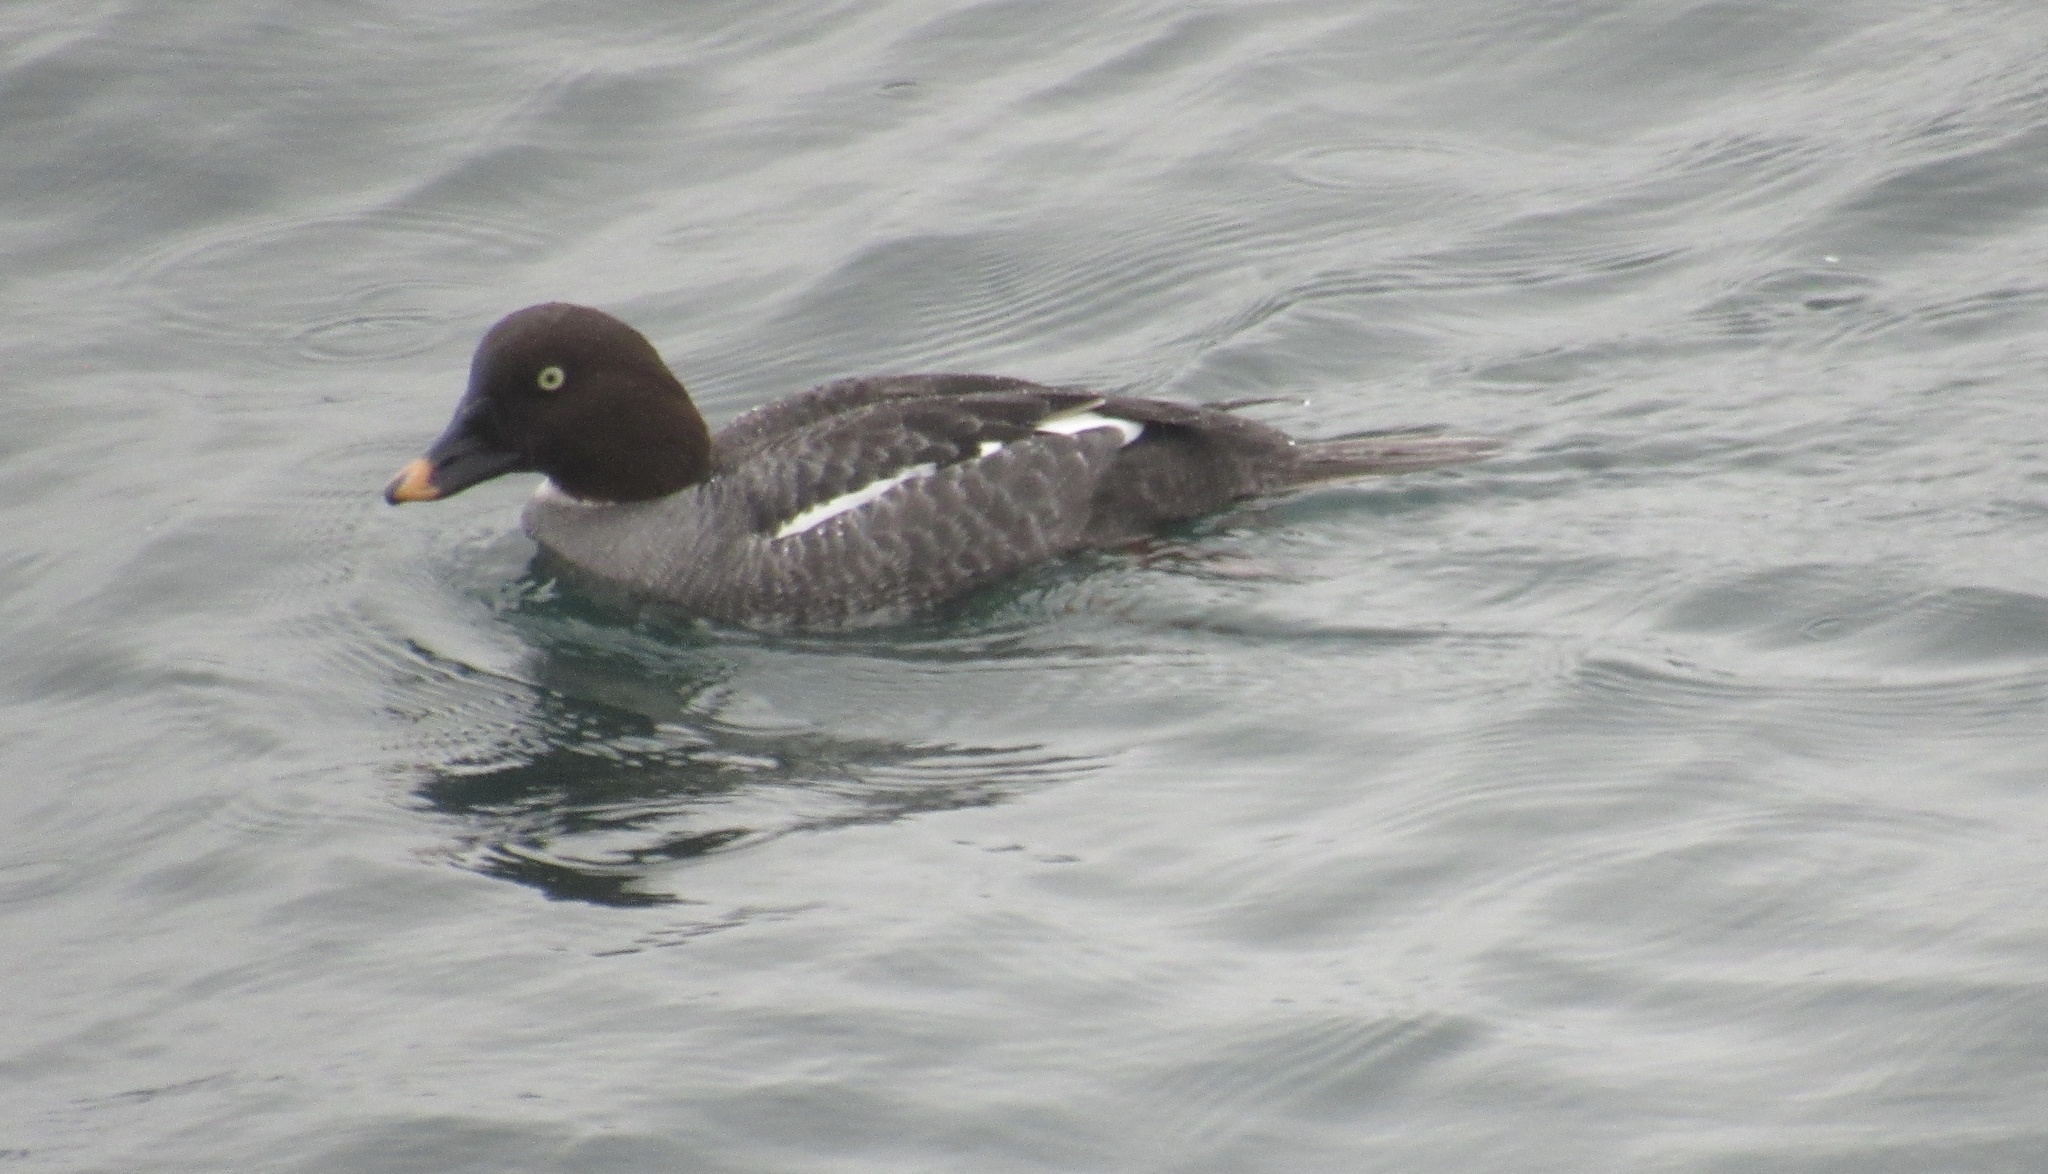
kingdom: Animalia
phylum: Chordata
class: Aves
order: Anseriformes
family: Anatidae
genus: Bucephala
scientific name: Bucephala clangula
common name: Common goldeneye
